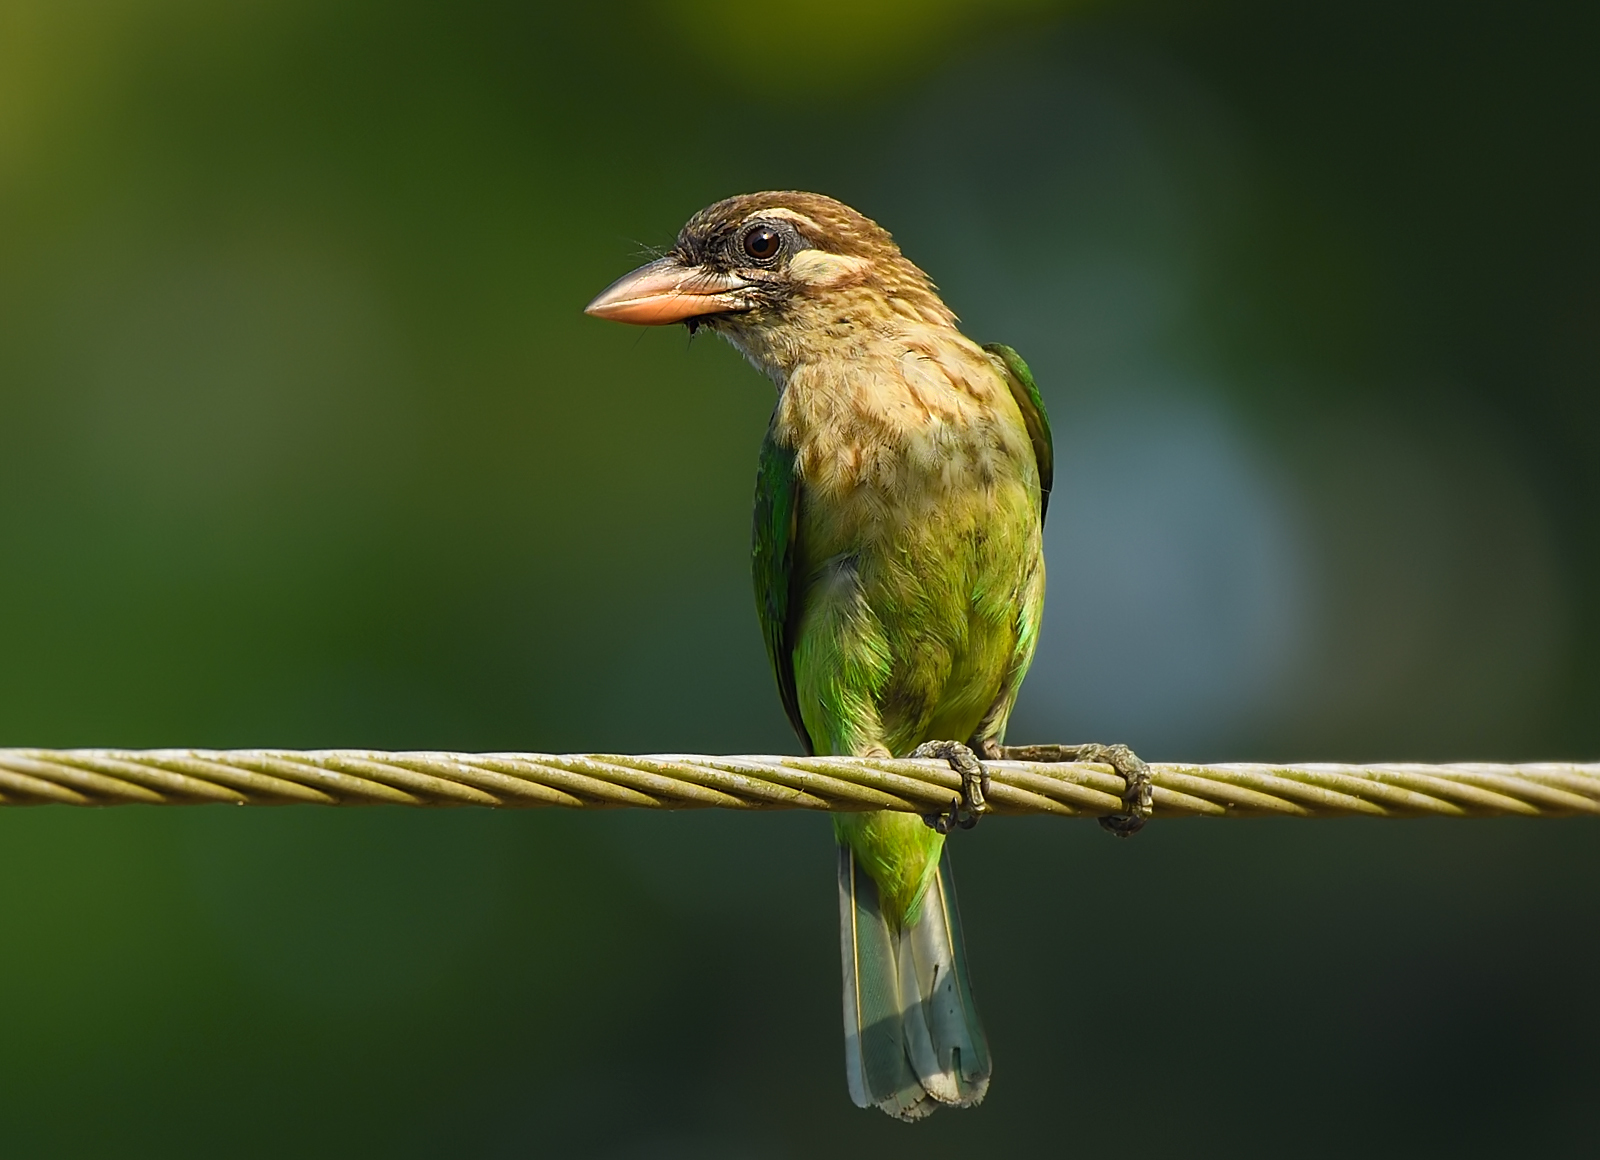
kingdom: Animalia
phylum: Chordata
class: Aves
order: Piciformes
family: Megalaimidae
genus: Psilopogon
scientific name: Psilopogon viridis
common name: White-cheeked barbet
